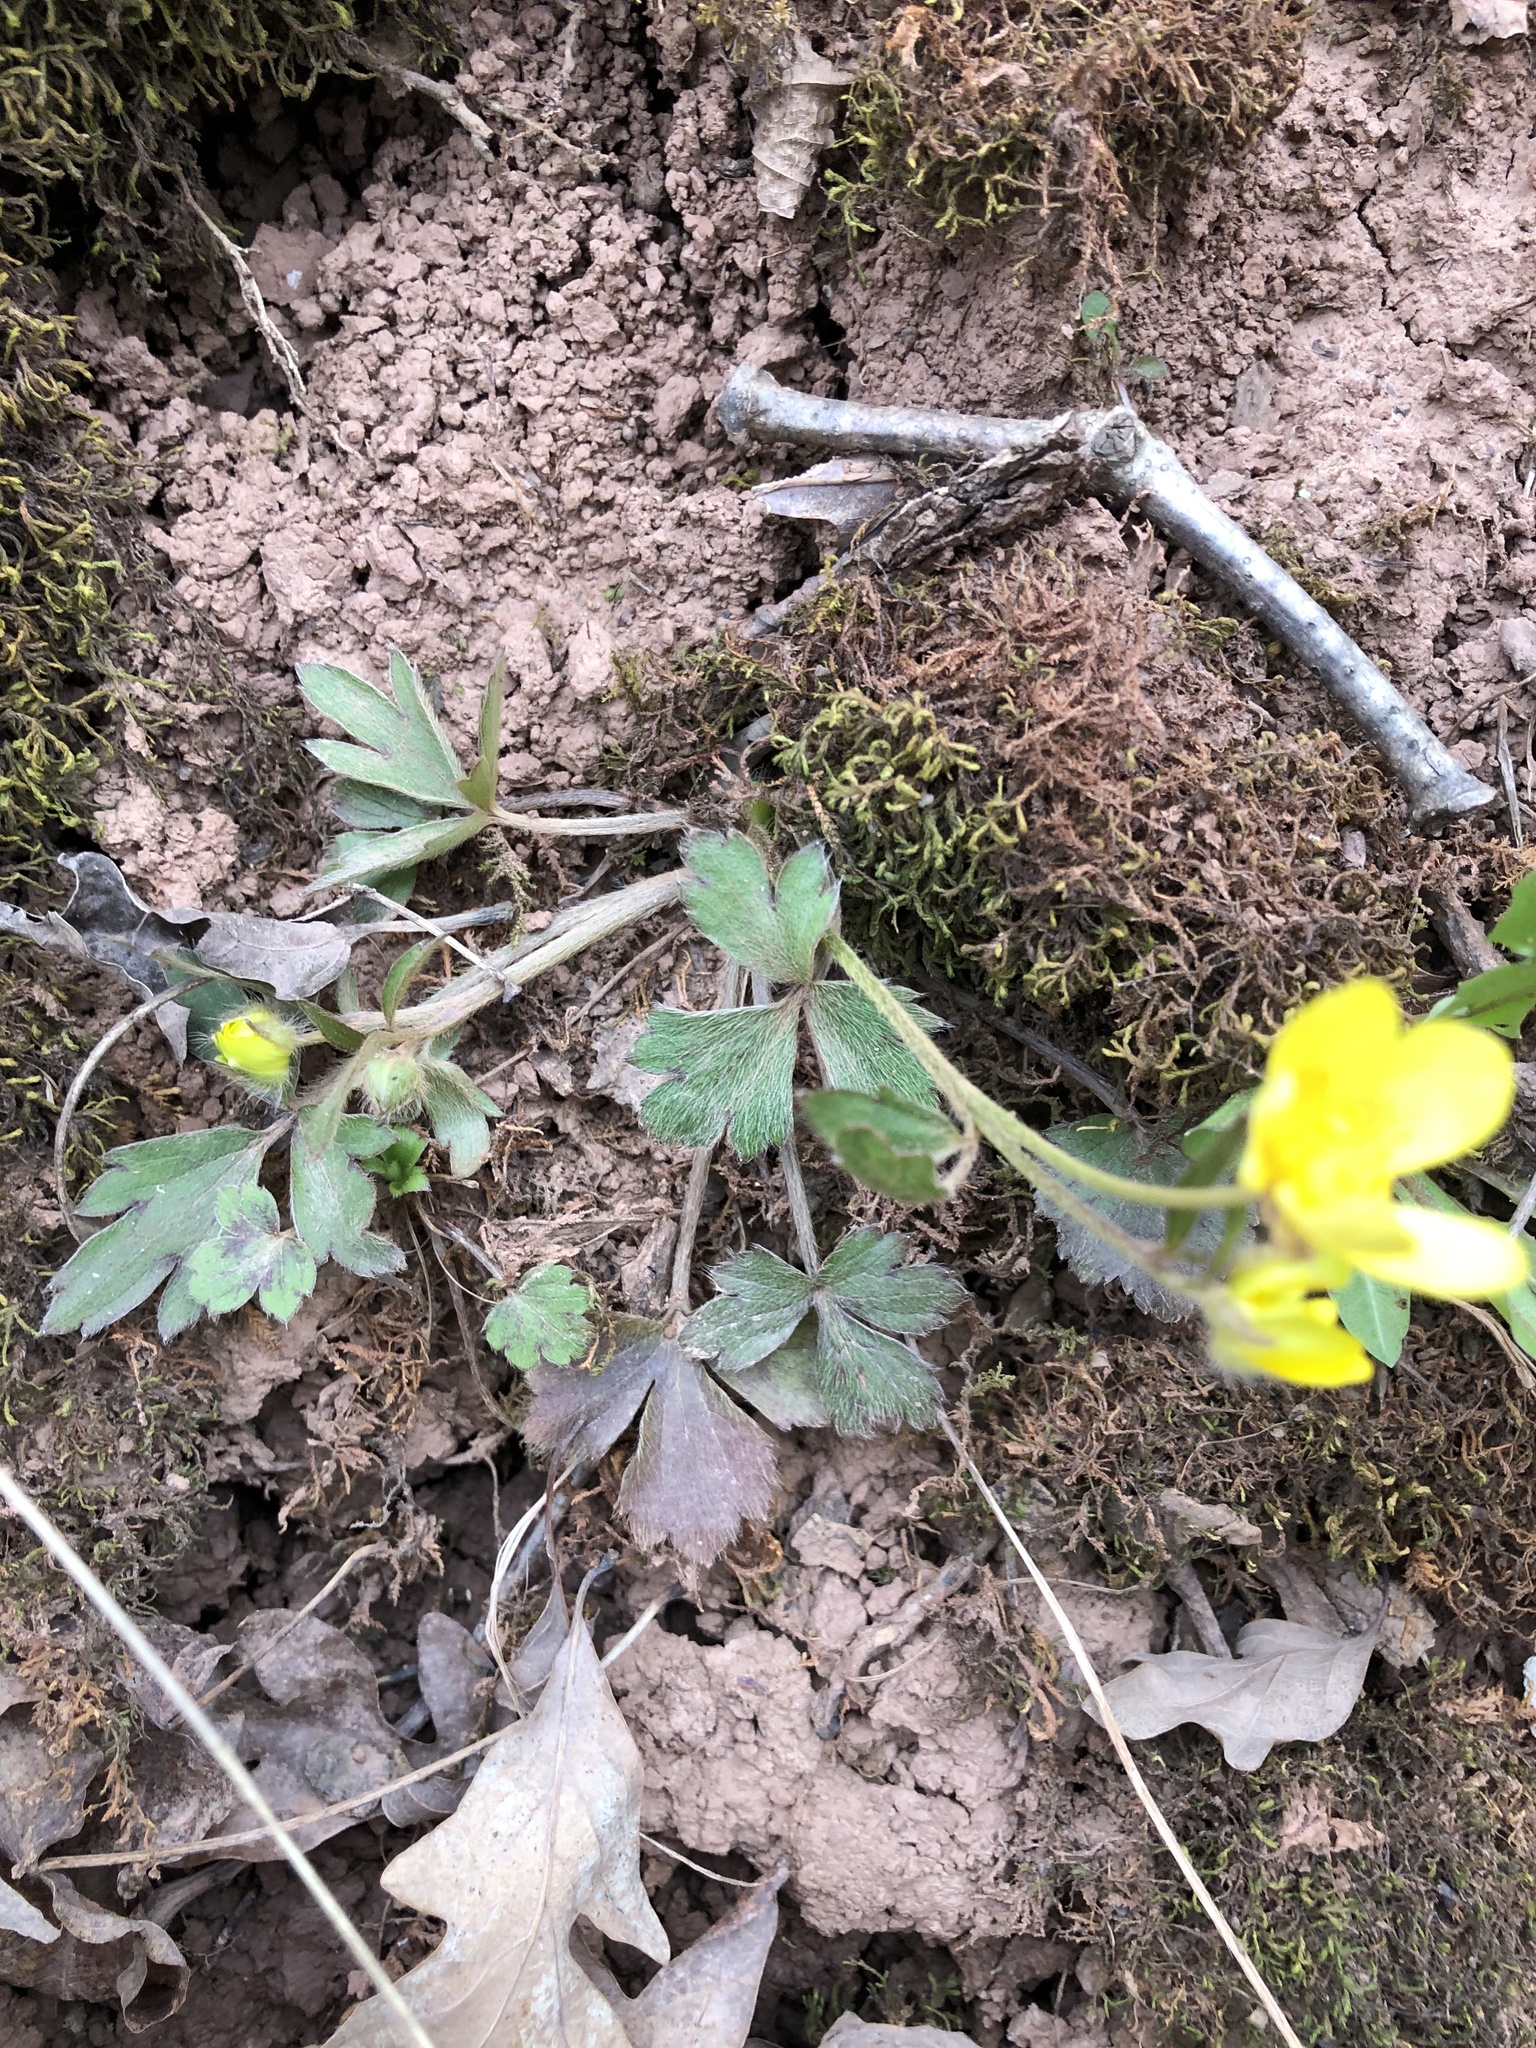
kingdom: Plantae
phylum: Tracheophyta
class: Magnoliopsida
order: Ranunculales
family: Ranunculaceae
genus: Ranunculus
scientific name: Ranunculus hispidus
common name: Bristly buttercup
